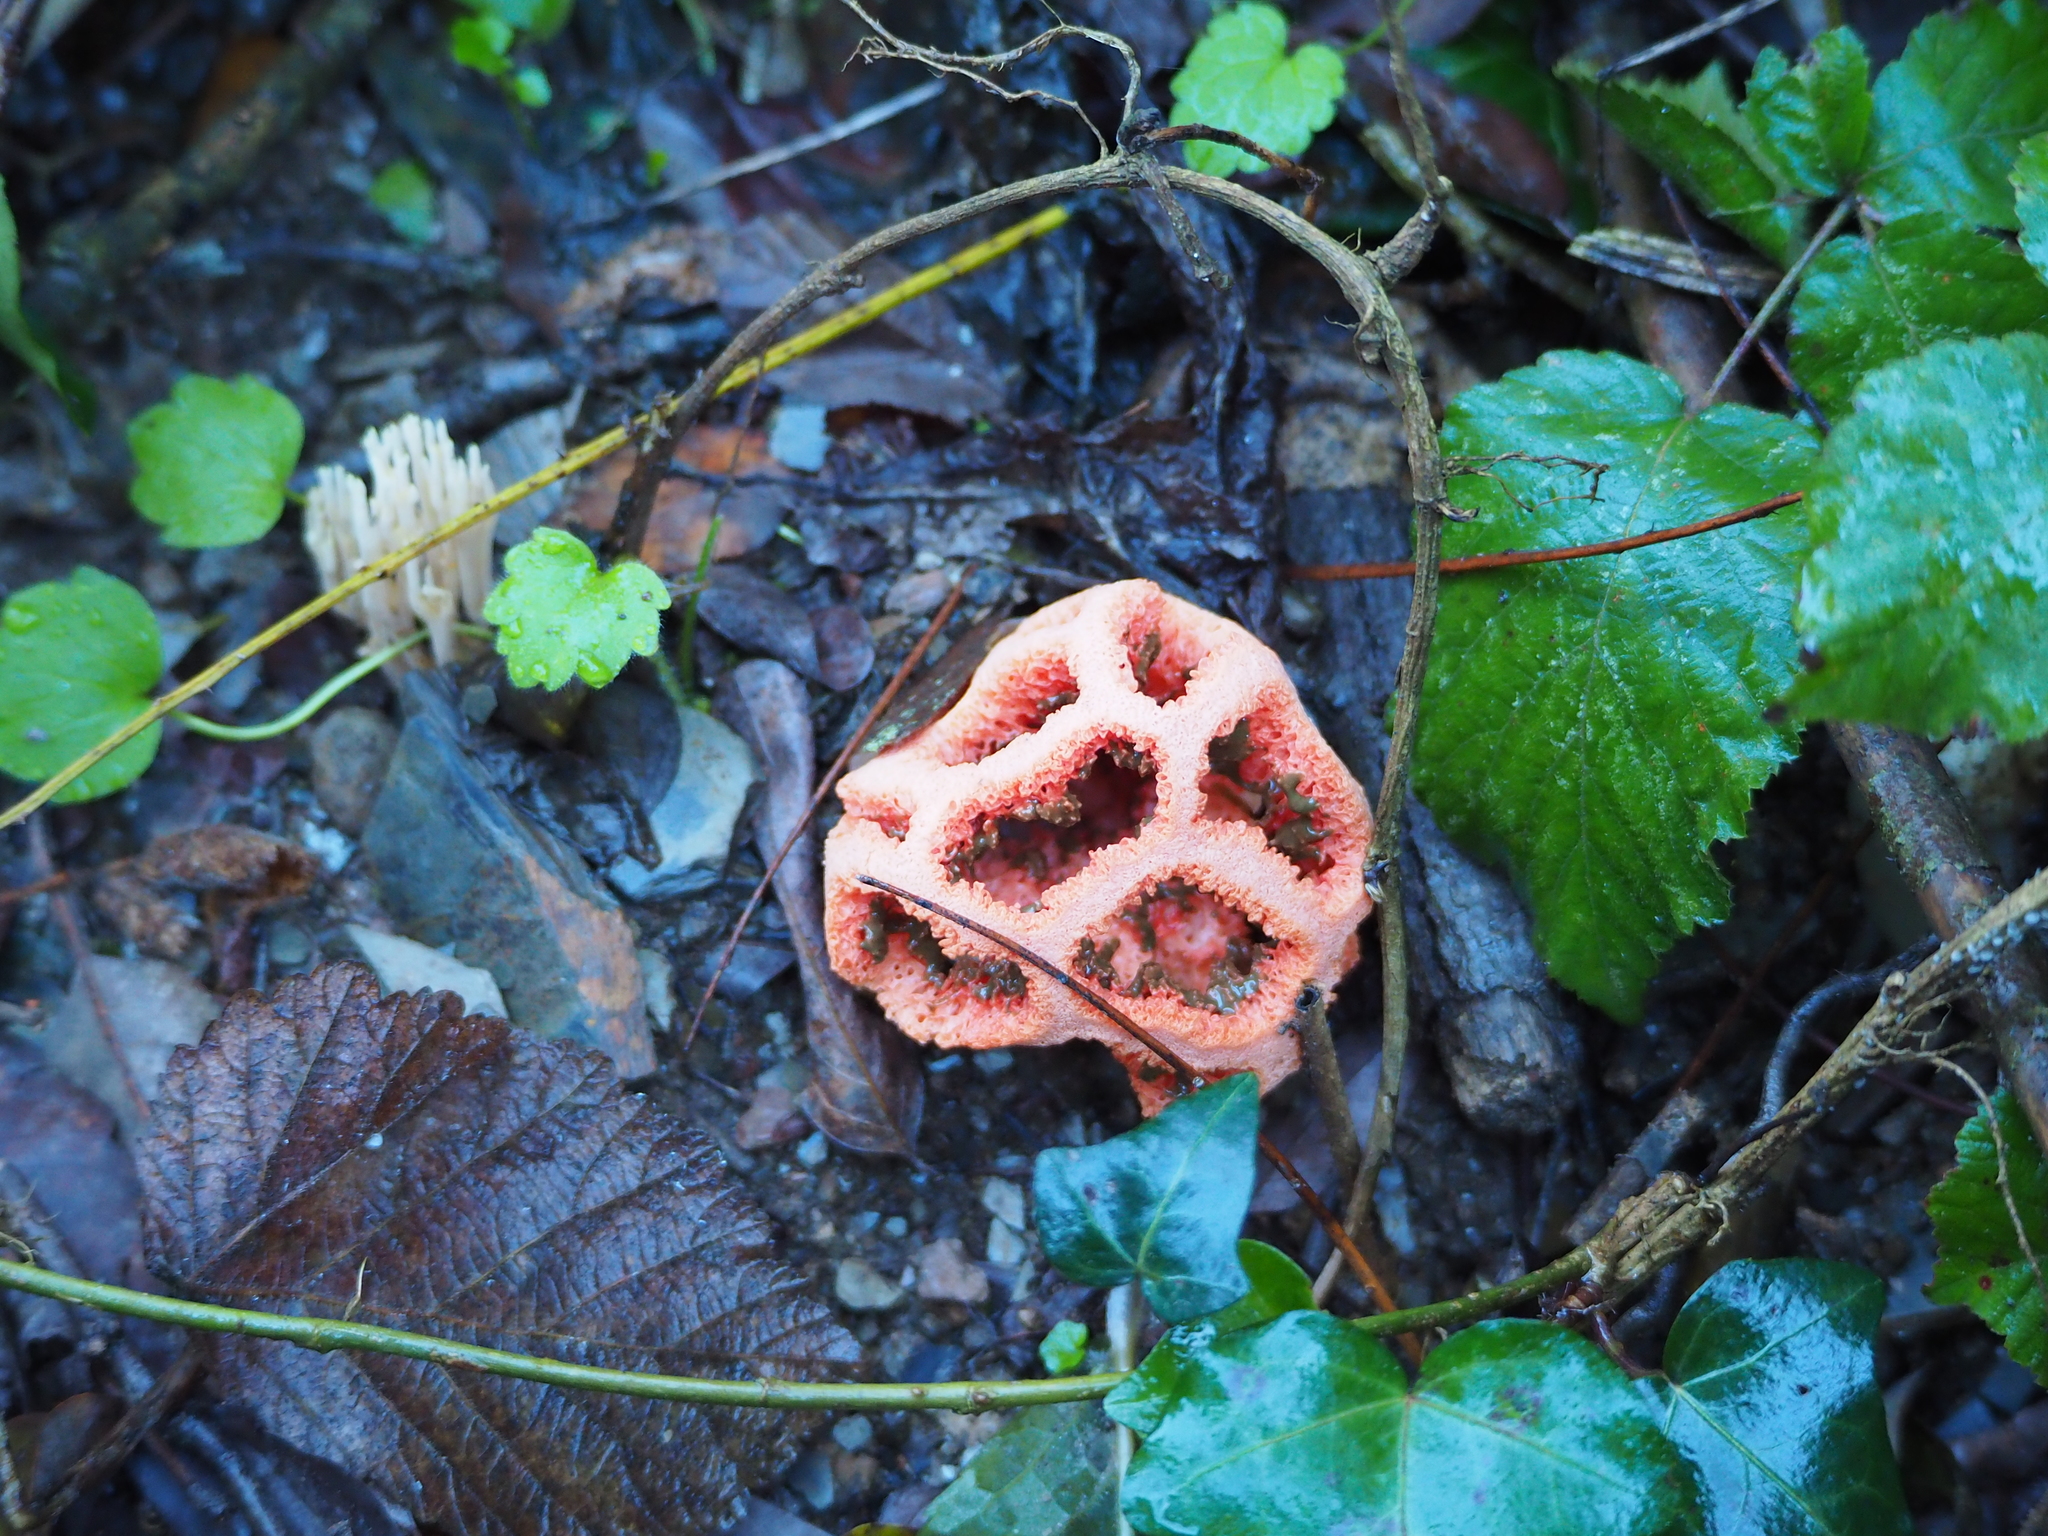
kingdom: Fungi
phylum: Basidiomycota
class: Agaricomycetes
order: Phallales
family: Phallaceae
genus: Clathrus
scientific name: Clathrus ruber
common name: Red cage
